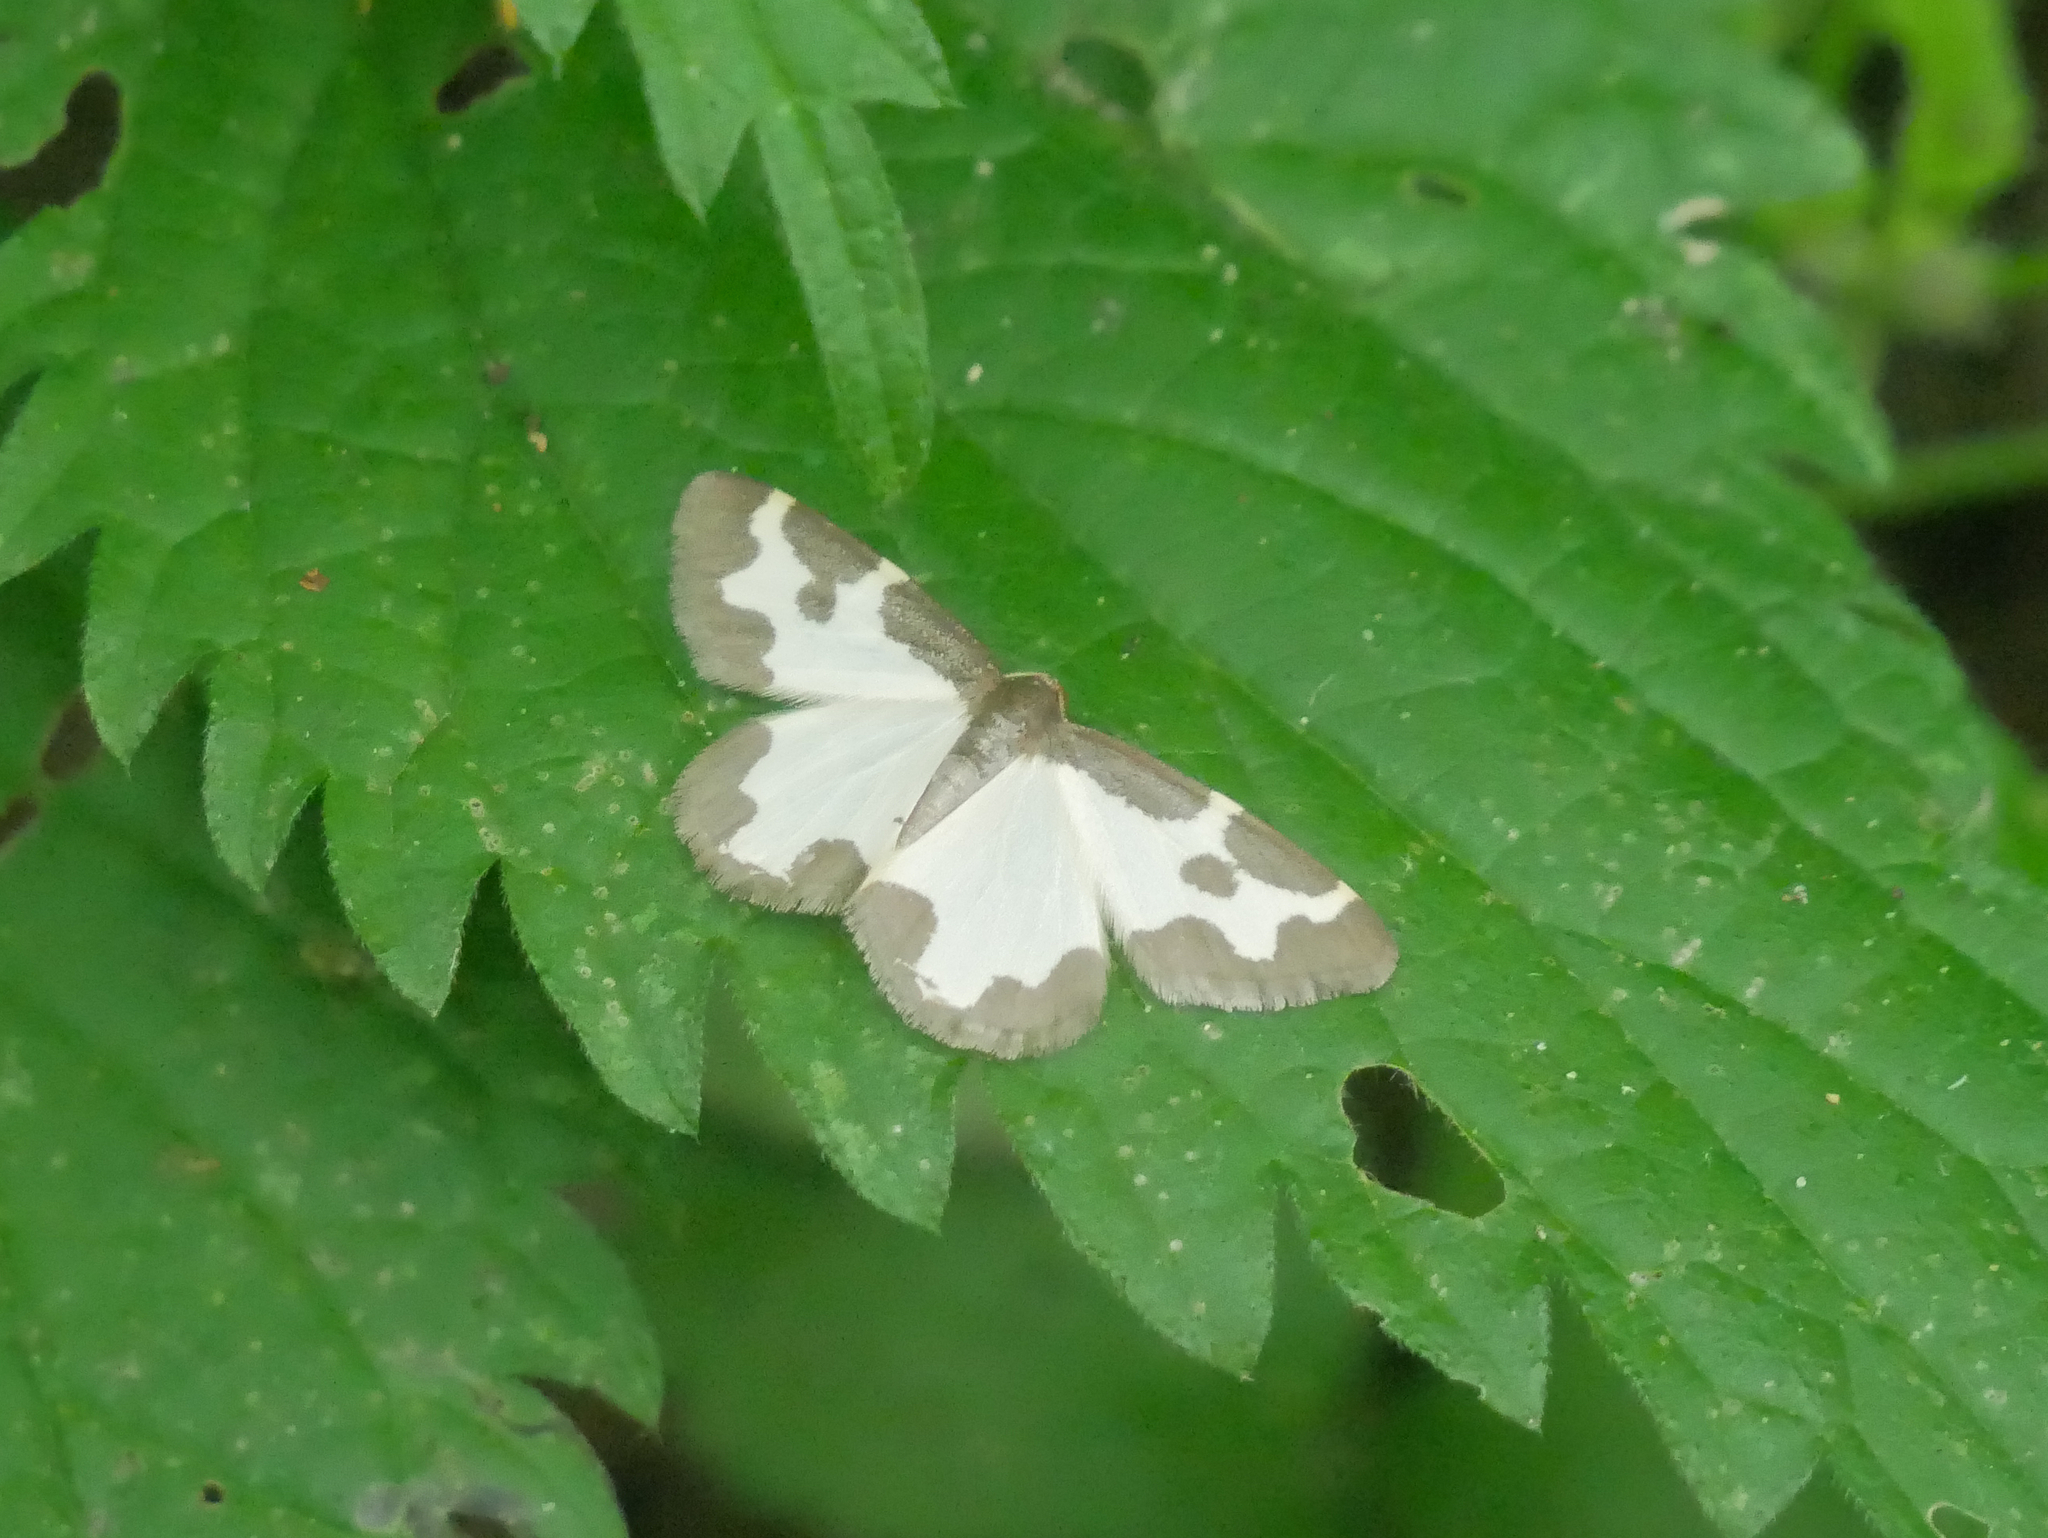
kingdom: Animalia
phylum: Arthropoda
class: Insecta
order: Lepidoptera
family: Geometridae
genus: Lomaspilis
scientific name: Lomaspilis marginata
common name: Clouded border
